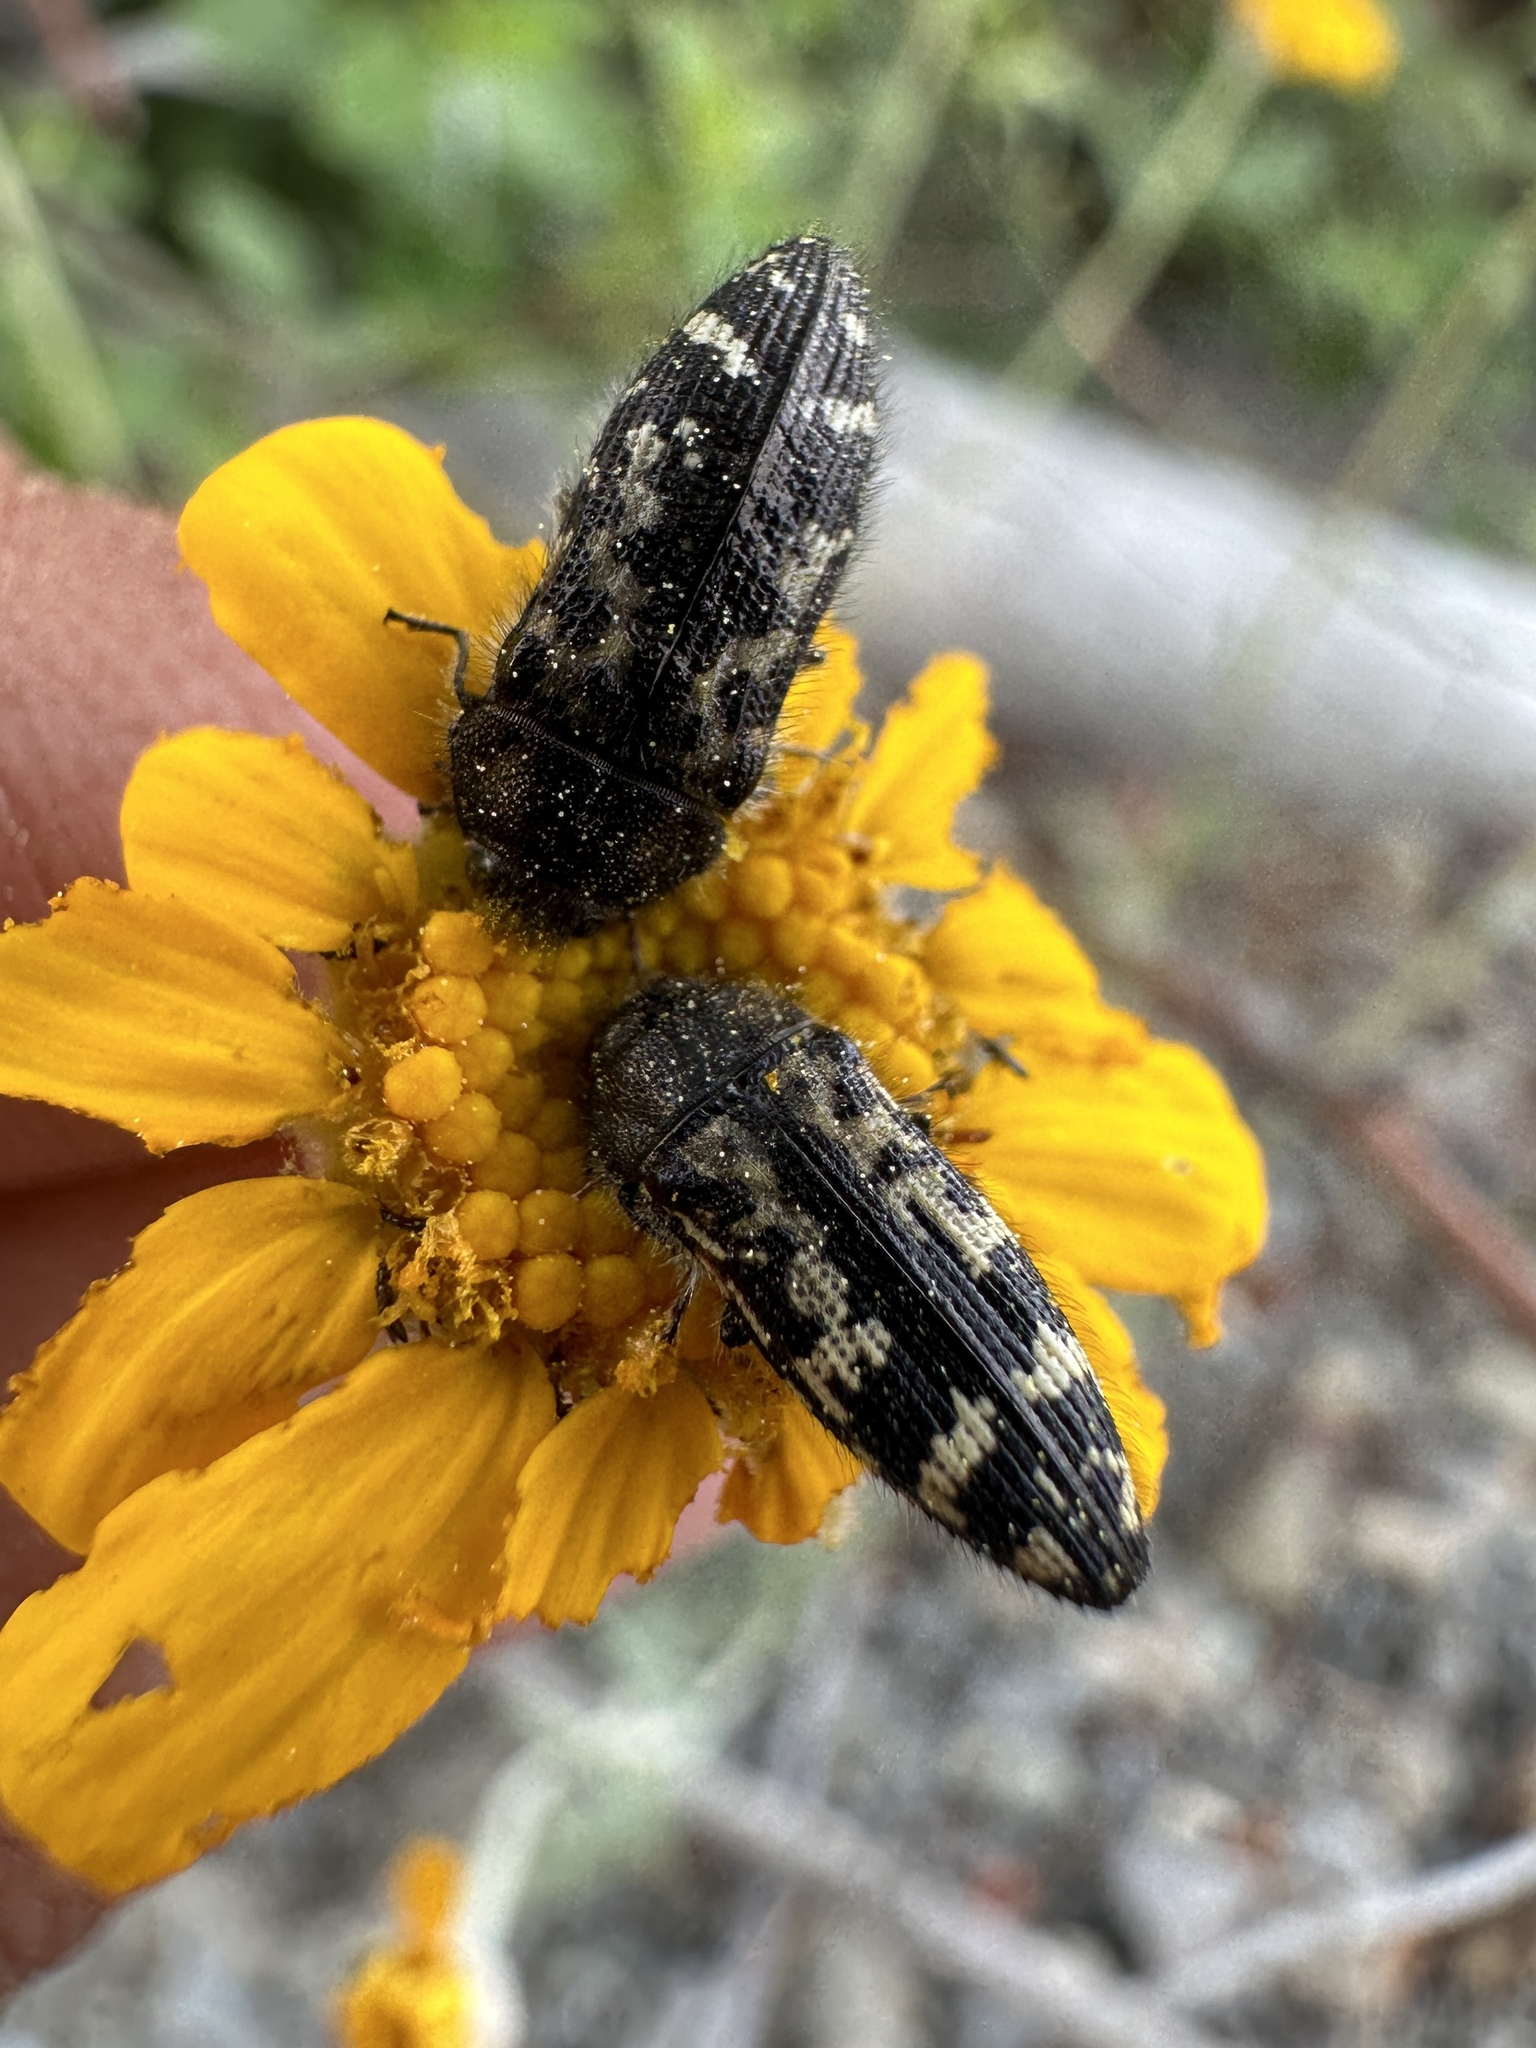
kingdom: Animalia
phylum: Arthropoda
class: Insecta
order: Coleoptera
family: Buprestidae
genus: Acmaeodera
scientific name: Acmaeodera connexa
